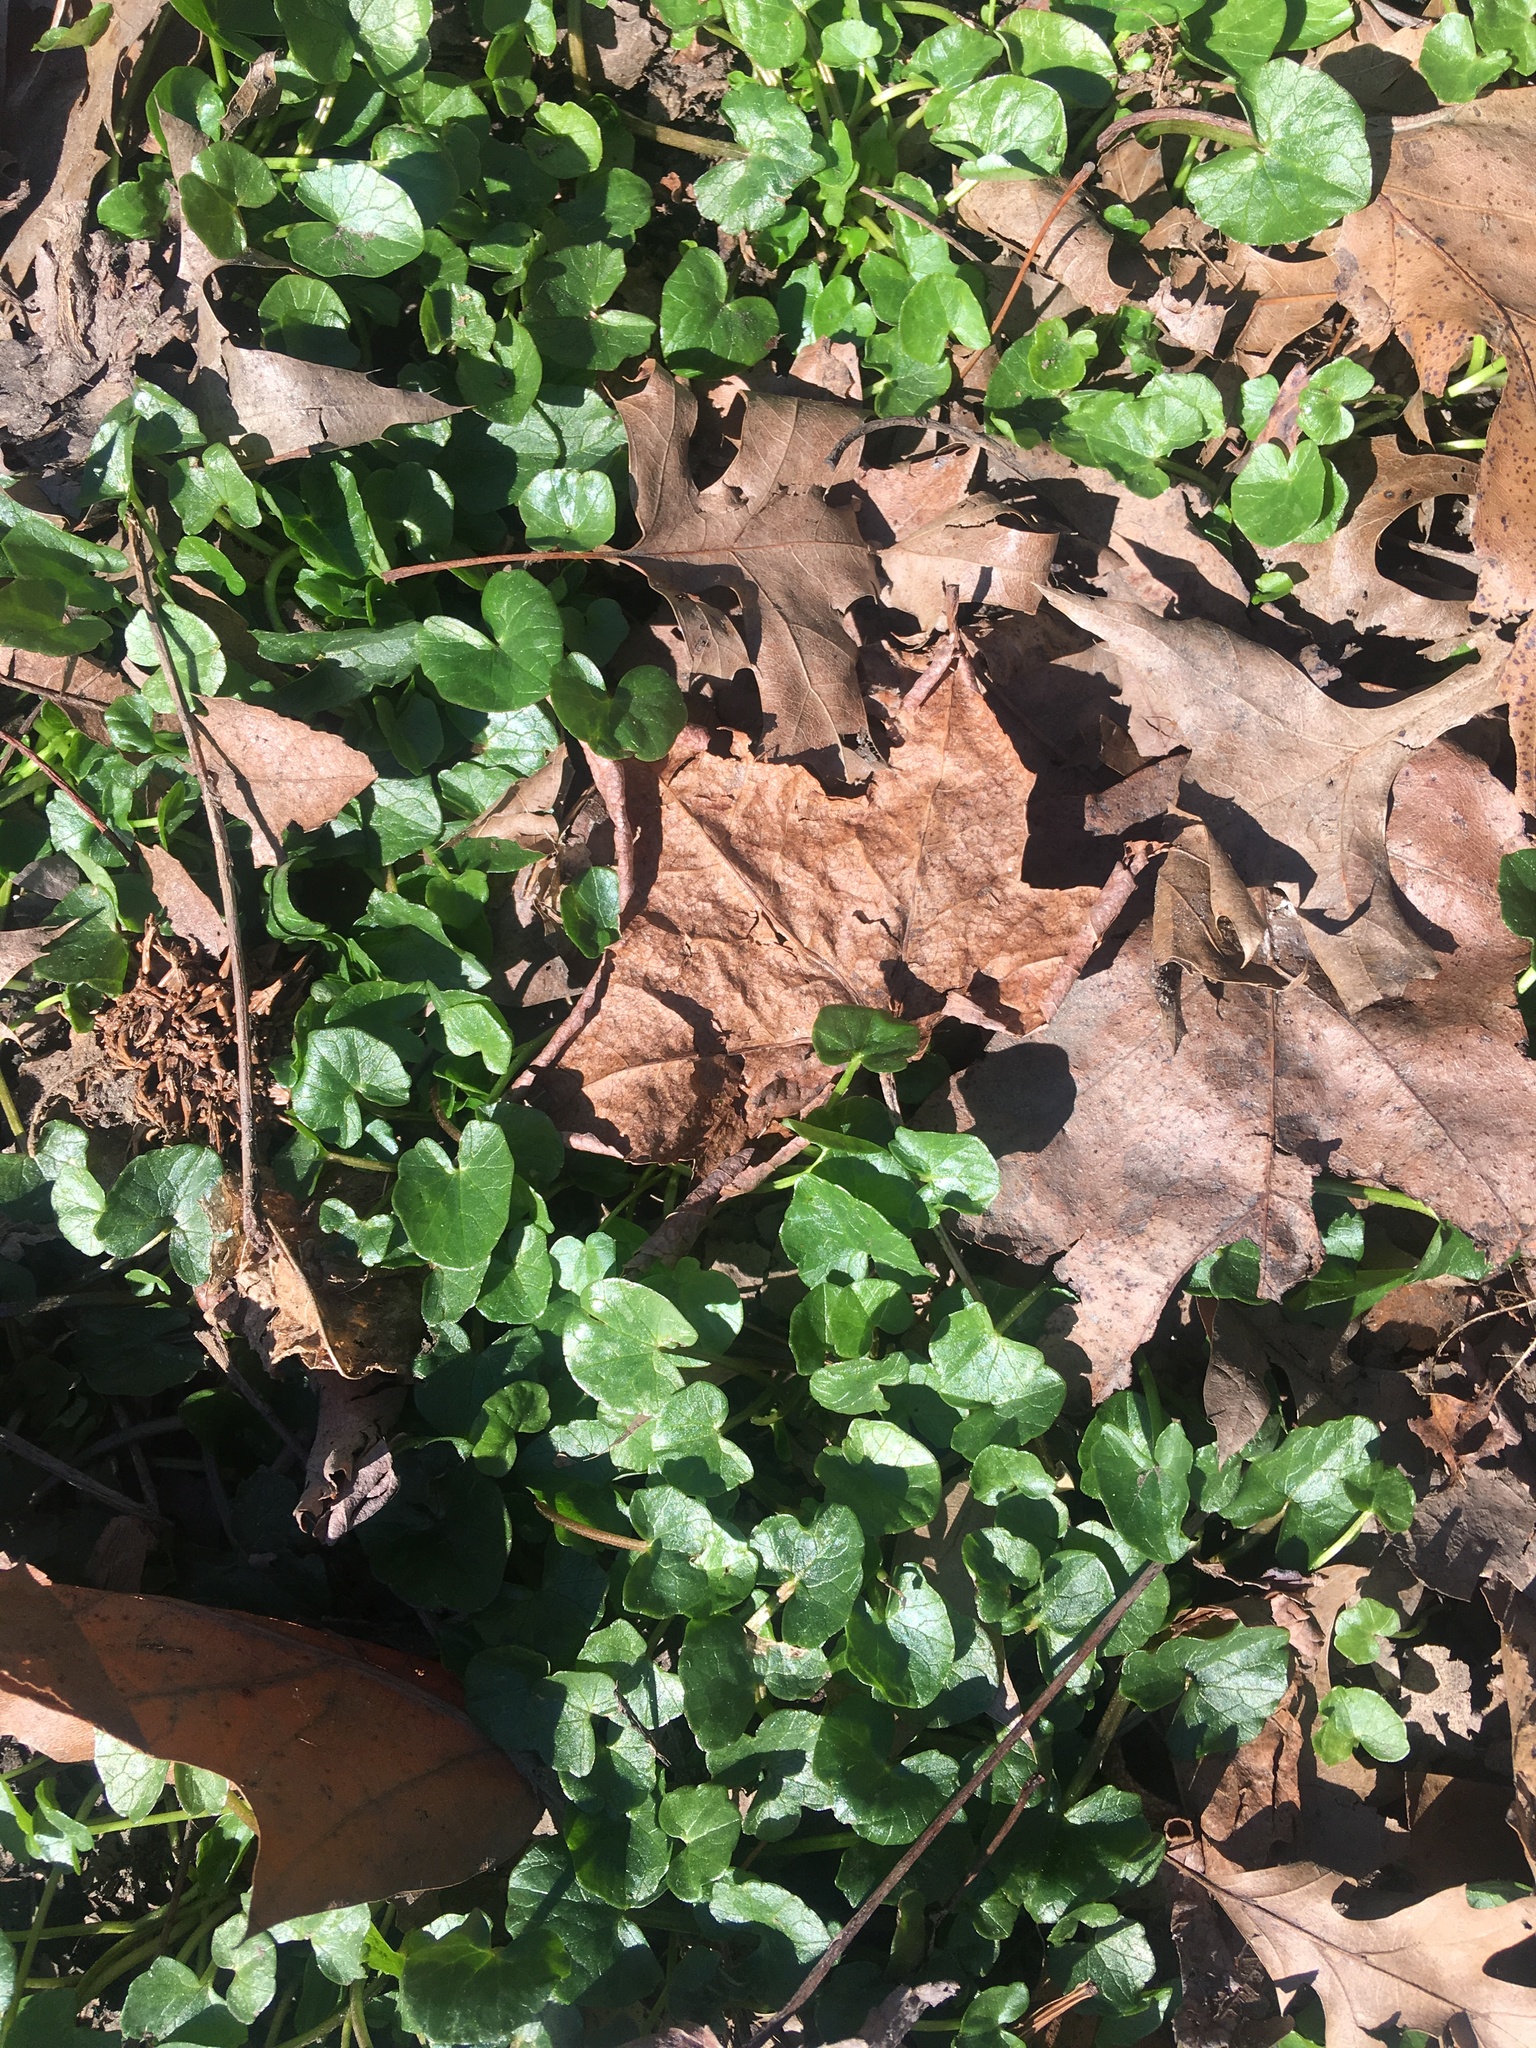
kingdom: Plantae
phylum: Tracheophyta
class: Magnoliopsida
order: Ranunculales
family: Ranunculaceae
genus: Ficaria
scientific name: Ficaria verna
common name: Lesser celandine
